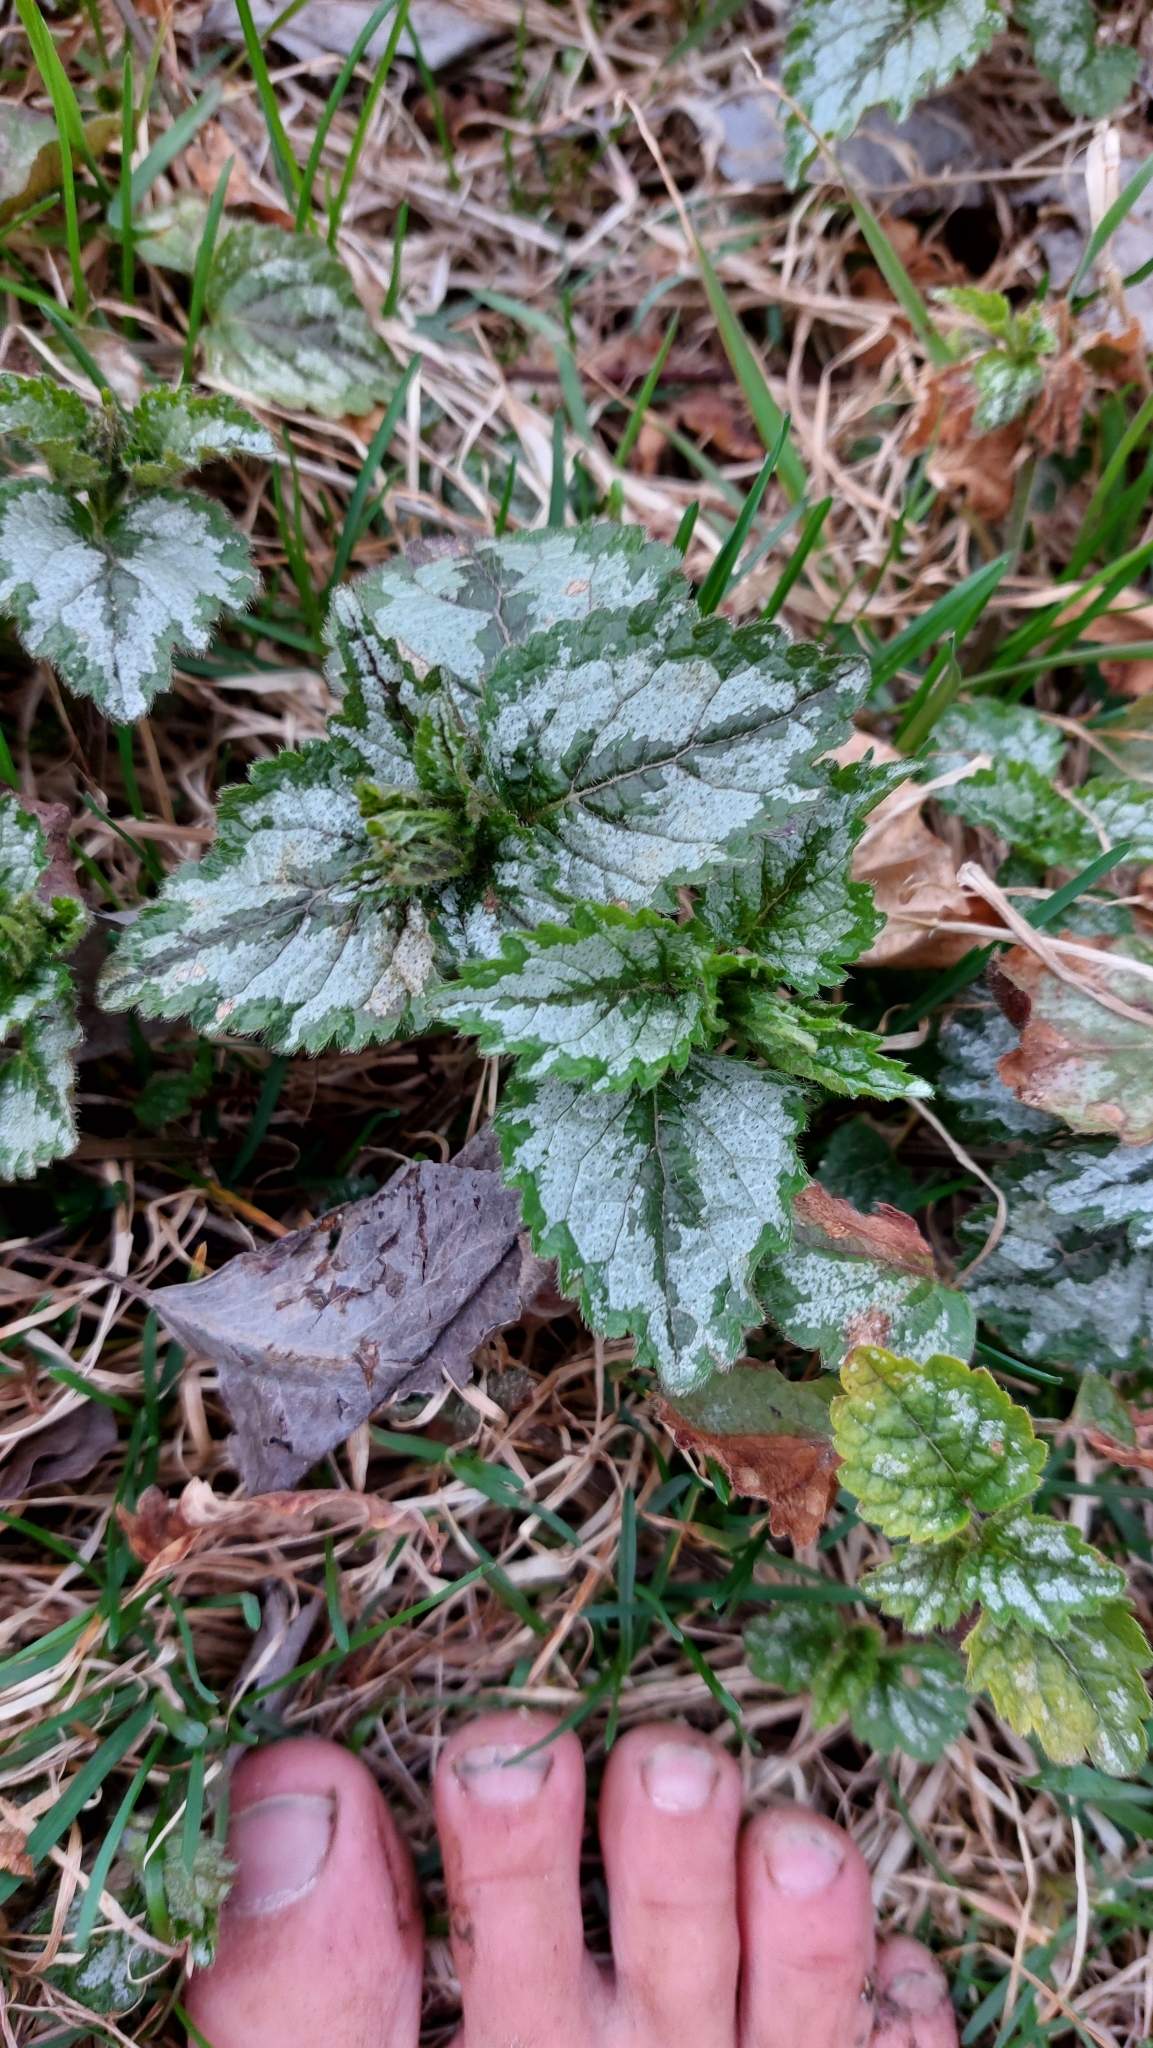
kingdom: Plantae
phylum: Tracheophyta
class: Magnoliopsida
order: Lamiales
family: Lamiaceae
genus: Lamium
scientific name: Lamium galeobdolon
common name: Yellow archangel
